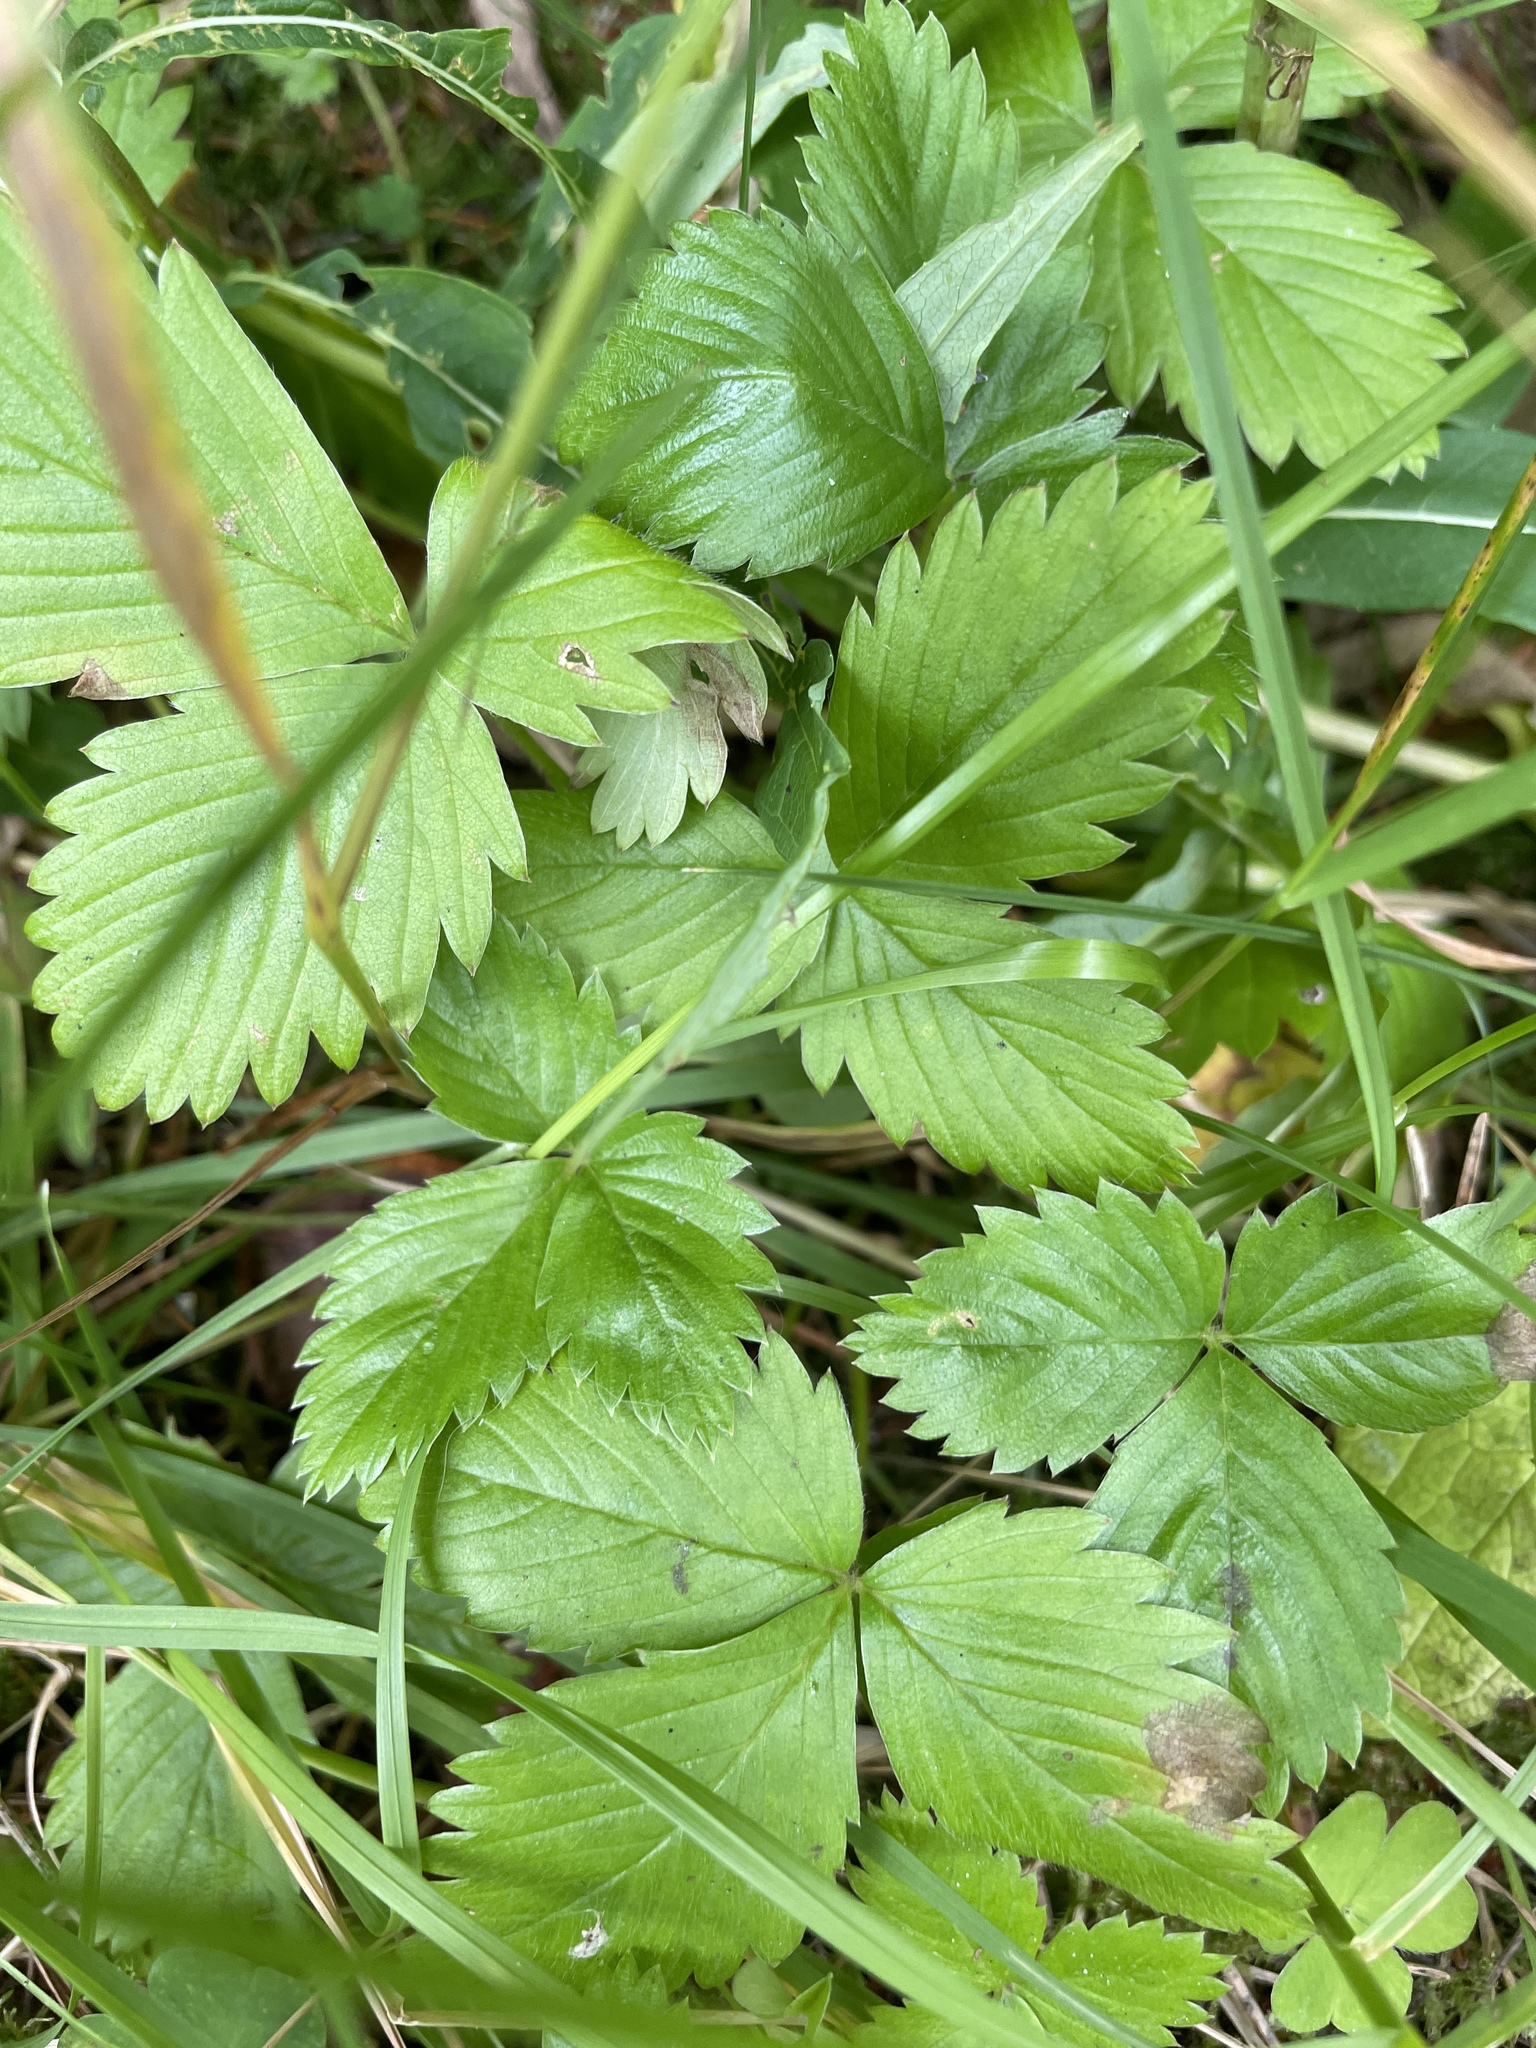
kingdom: Plantae
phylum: Tracheophyta
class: Magnoliopsida
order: Rosales
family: Rosaceae
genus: Fragaria
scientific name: Fragaria vesca
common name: Wild strawberry
